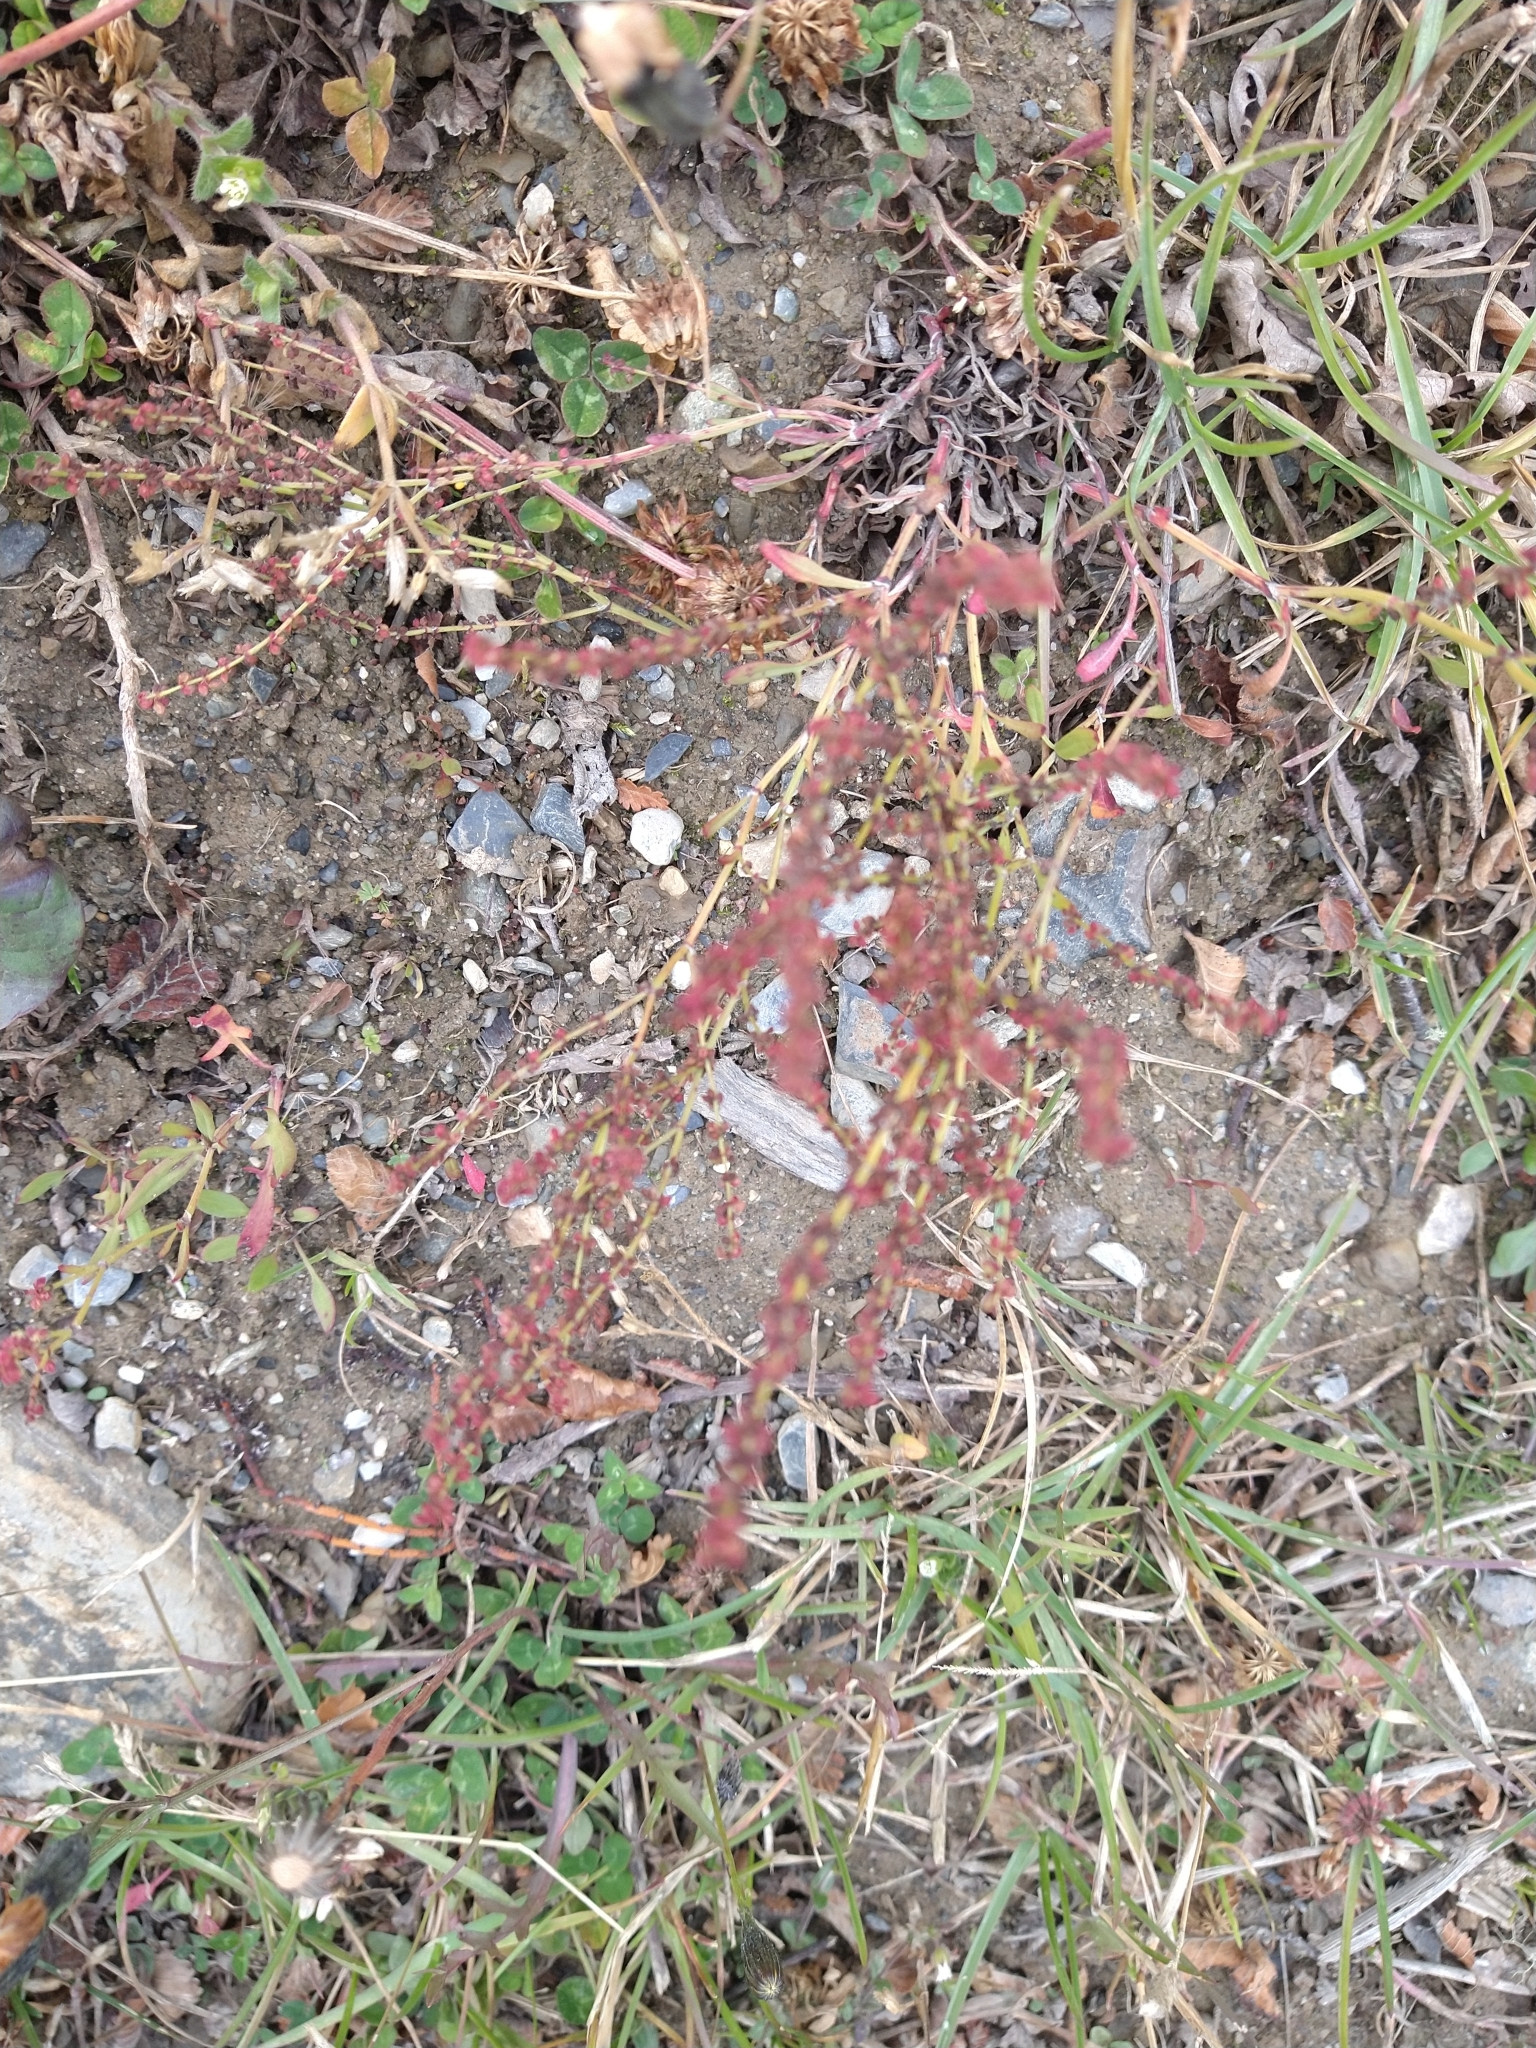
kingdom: Plantae
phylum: Tracheophyta
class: Magnoliopsida
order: Caryophyllales
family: Polygonaceae
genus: Rumex
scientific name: Rumex acetosella
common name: Common sheep sorrel
